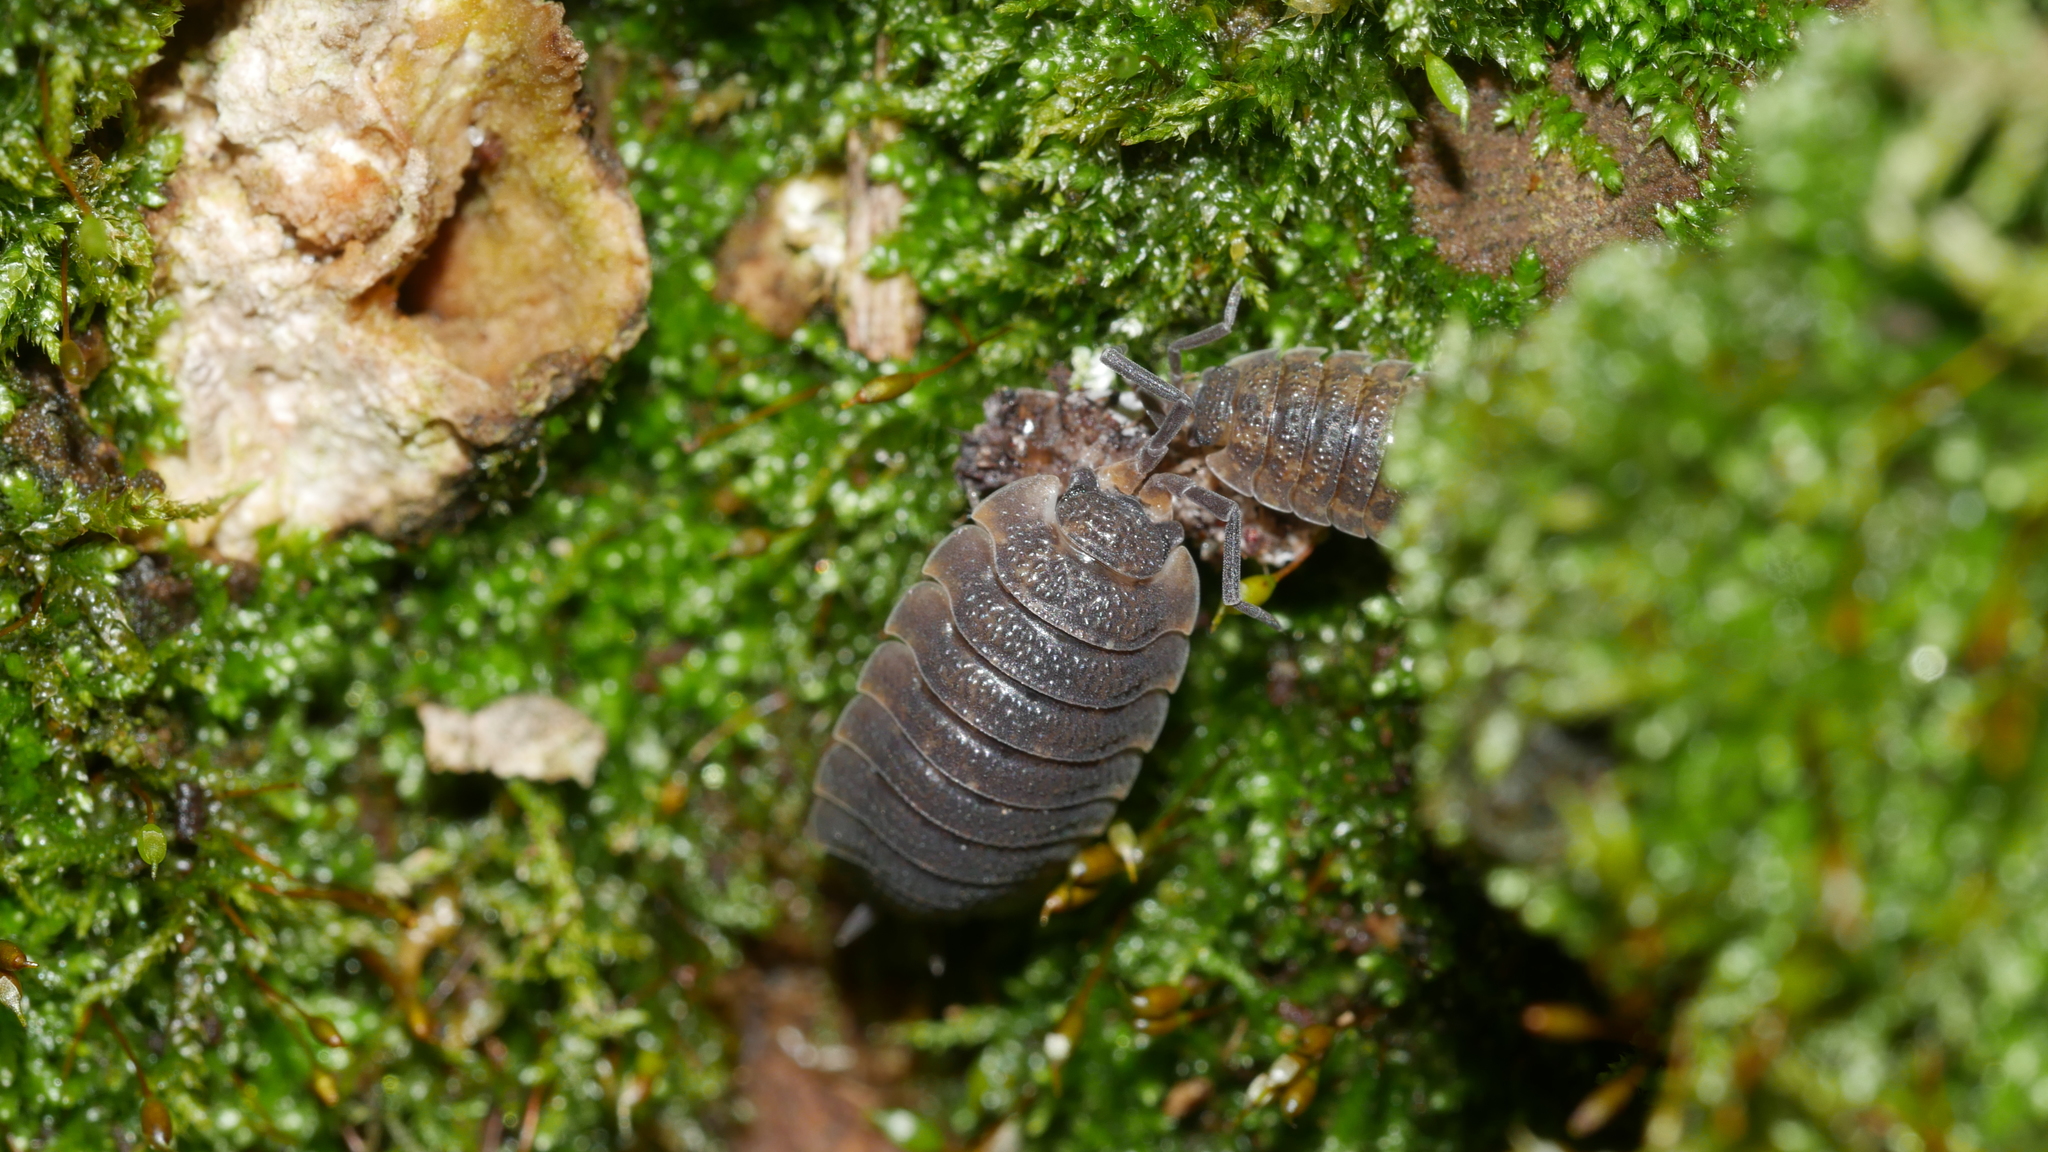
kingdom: Animalia
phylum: Arthropoda
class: Malacostraca
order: Isopoda
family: Porcellionidae
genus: Porcellio
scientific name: Porcellio scaber
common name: Common rough woodlouse
